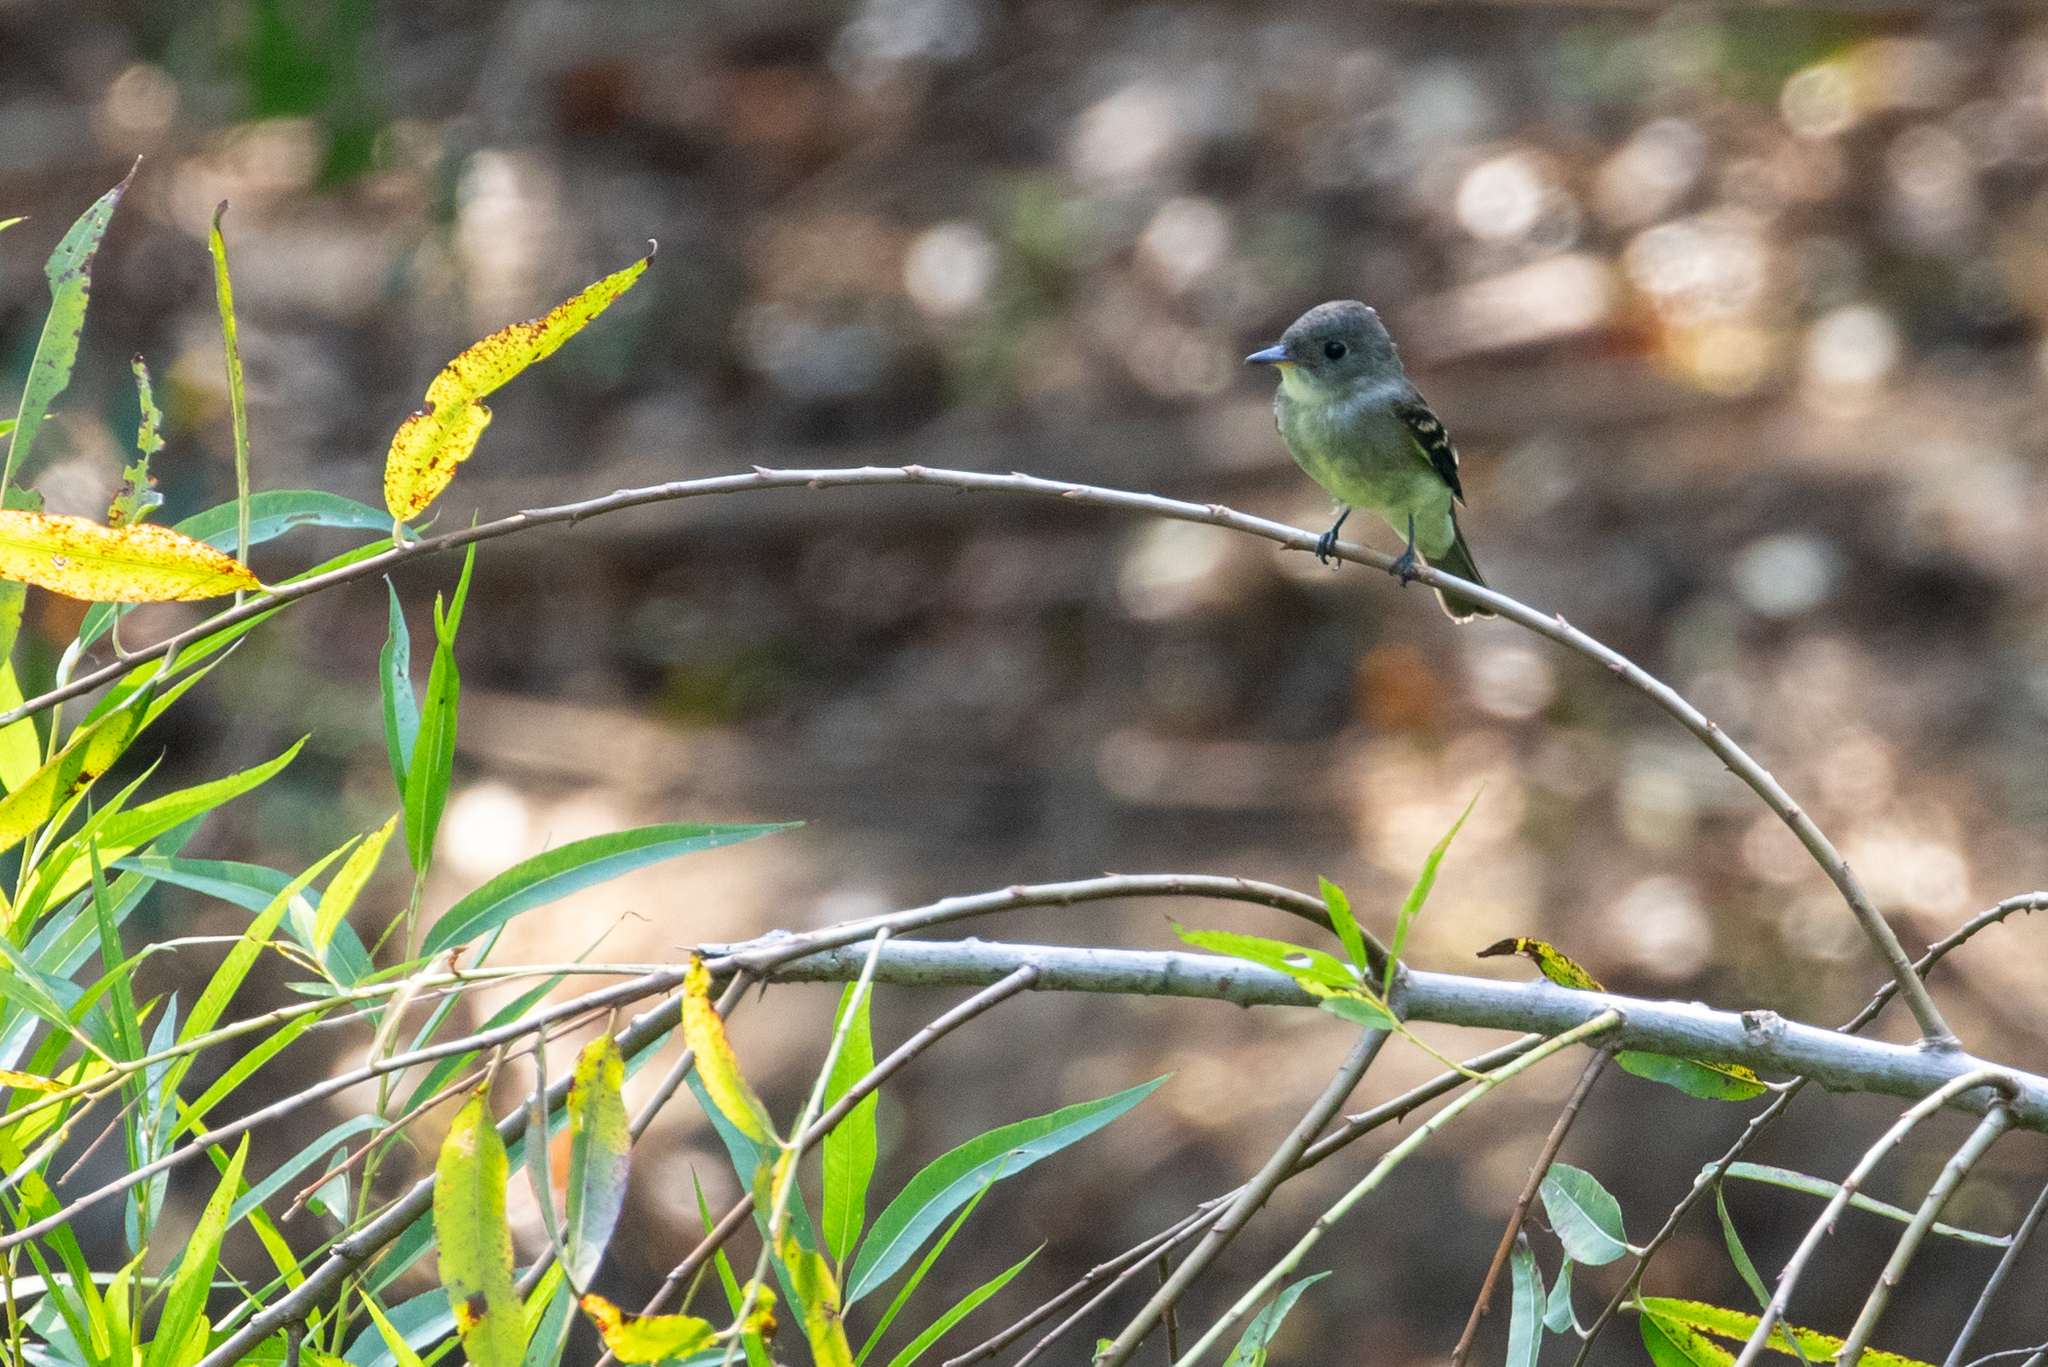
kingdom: Animalia
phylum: Chordata
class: Aves
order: Passeriformes
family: Tyrannidae
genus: Contopus
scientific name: Contopus virens
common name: Eastern wood-pewee
